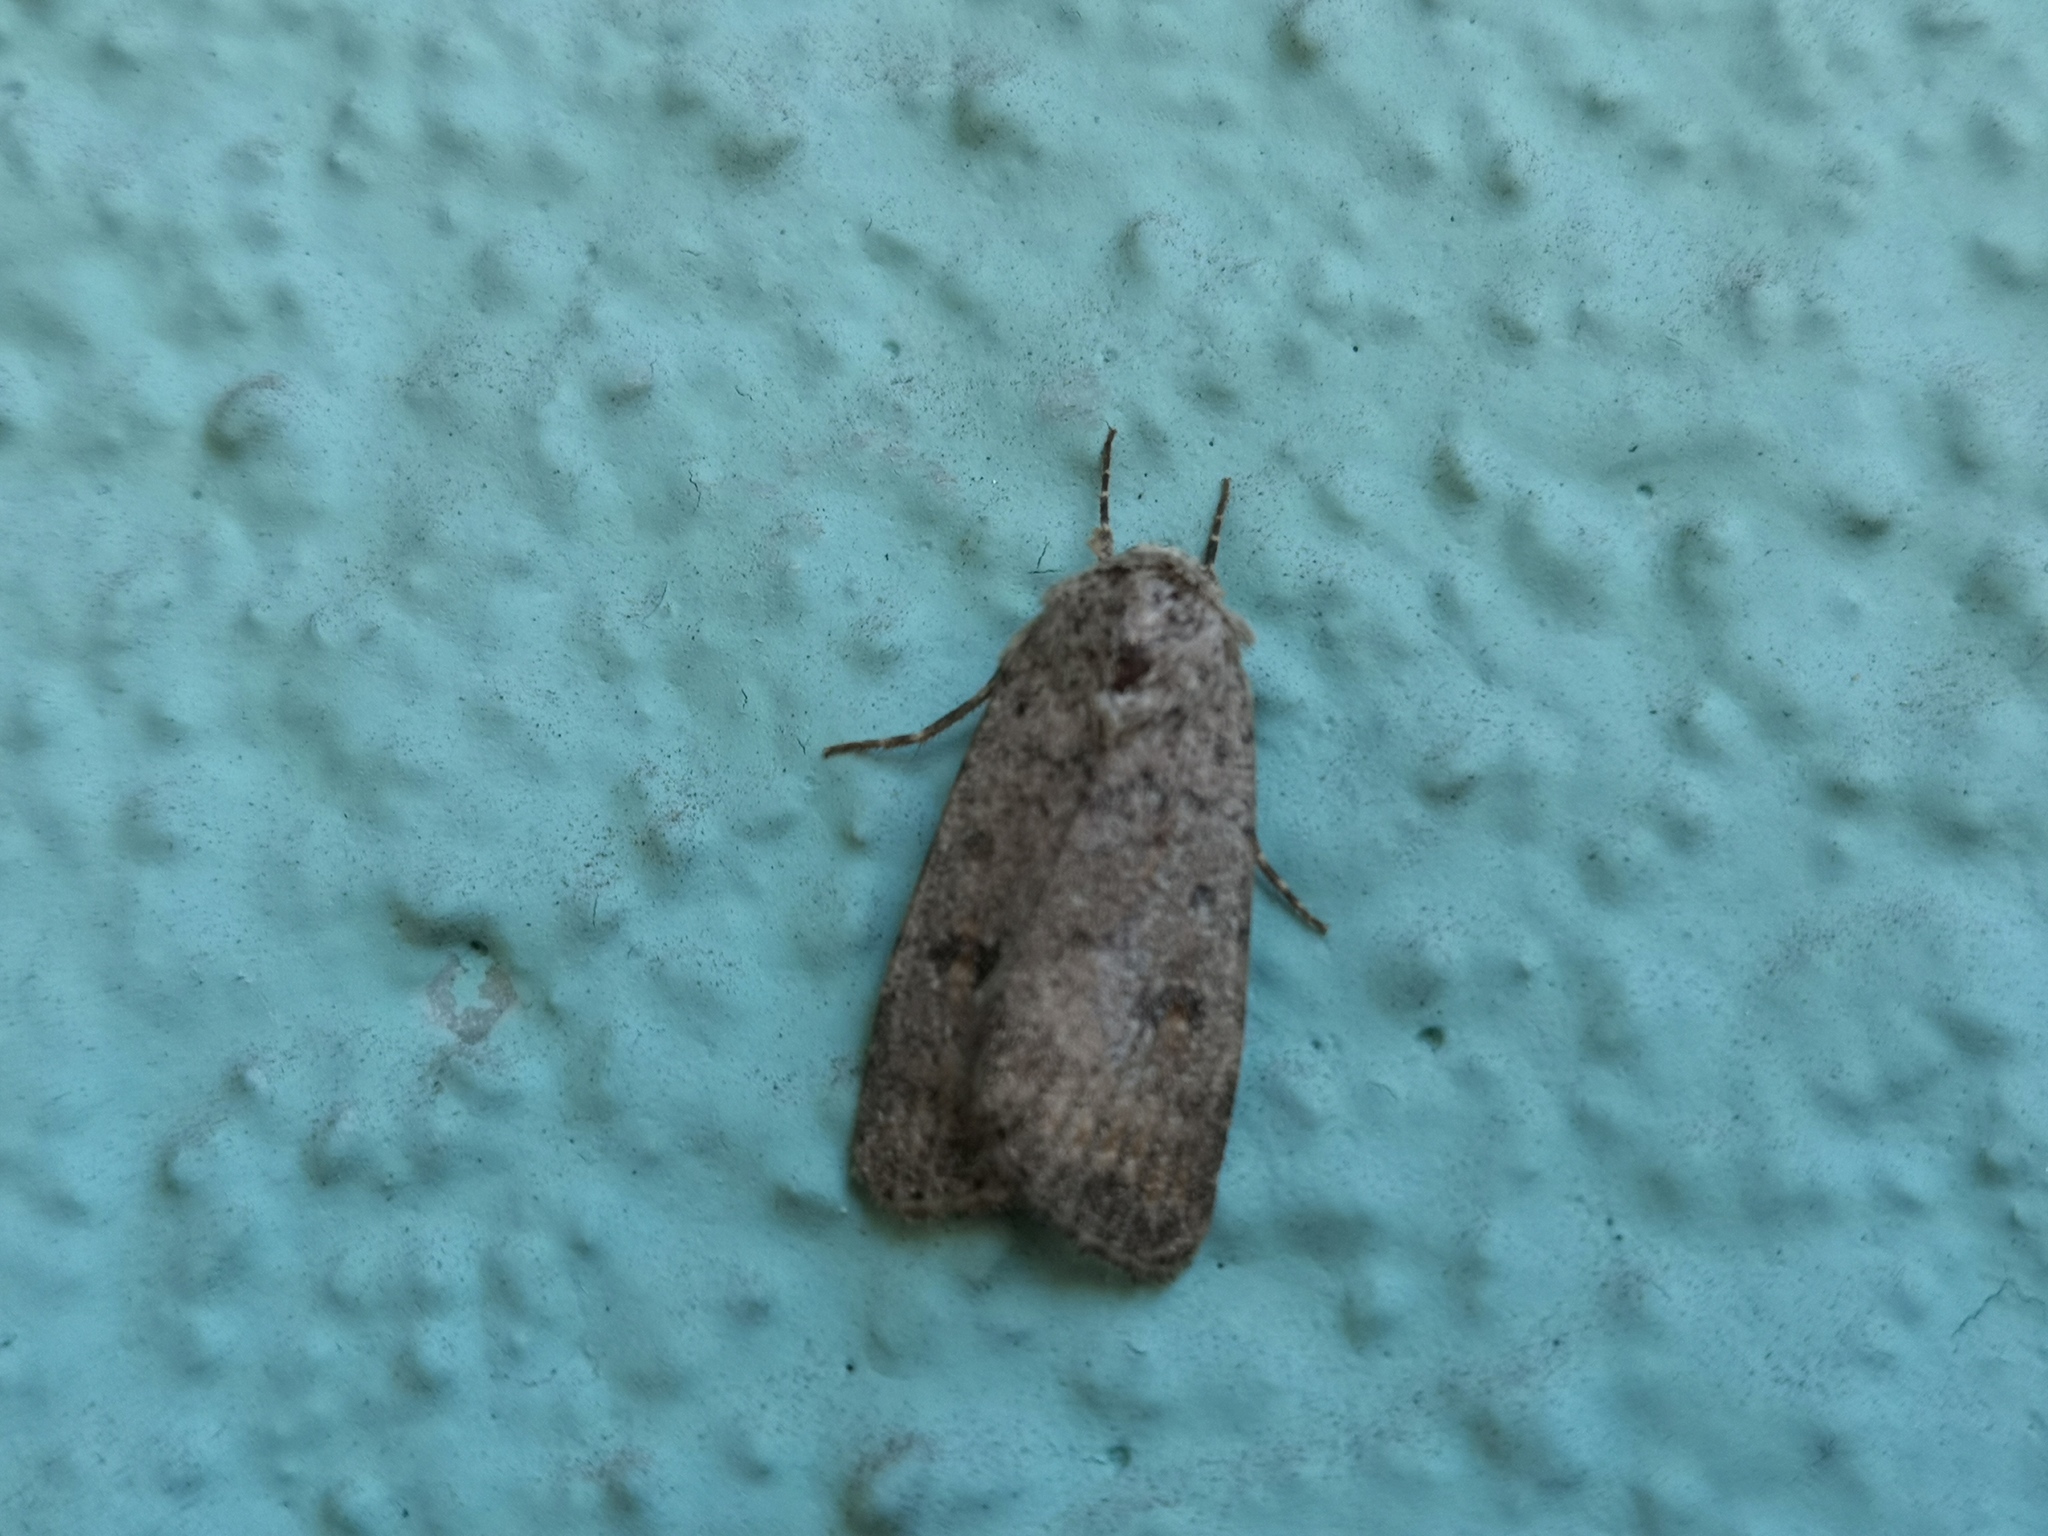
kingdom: Animalia
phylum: Arthropoda
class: Insecta
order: Lepidoptera
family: Noctuidae
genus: Caradrina
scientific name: Caradrina clavipalpis
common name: Pale mottled willow
